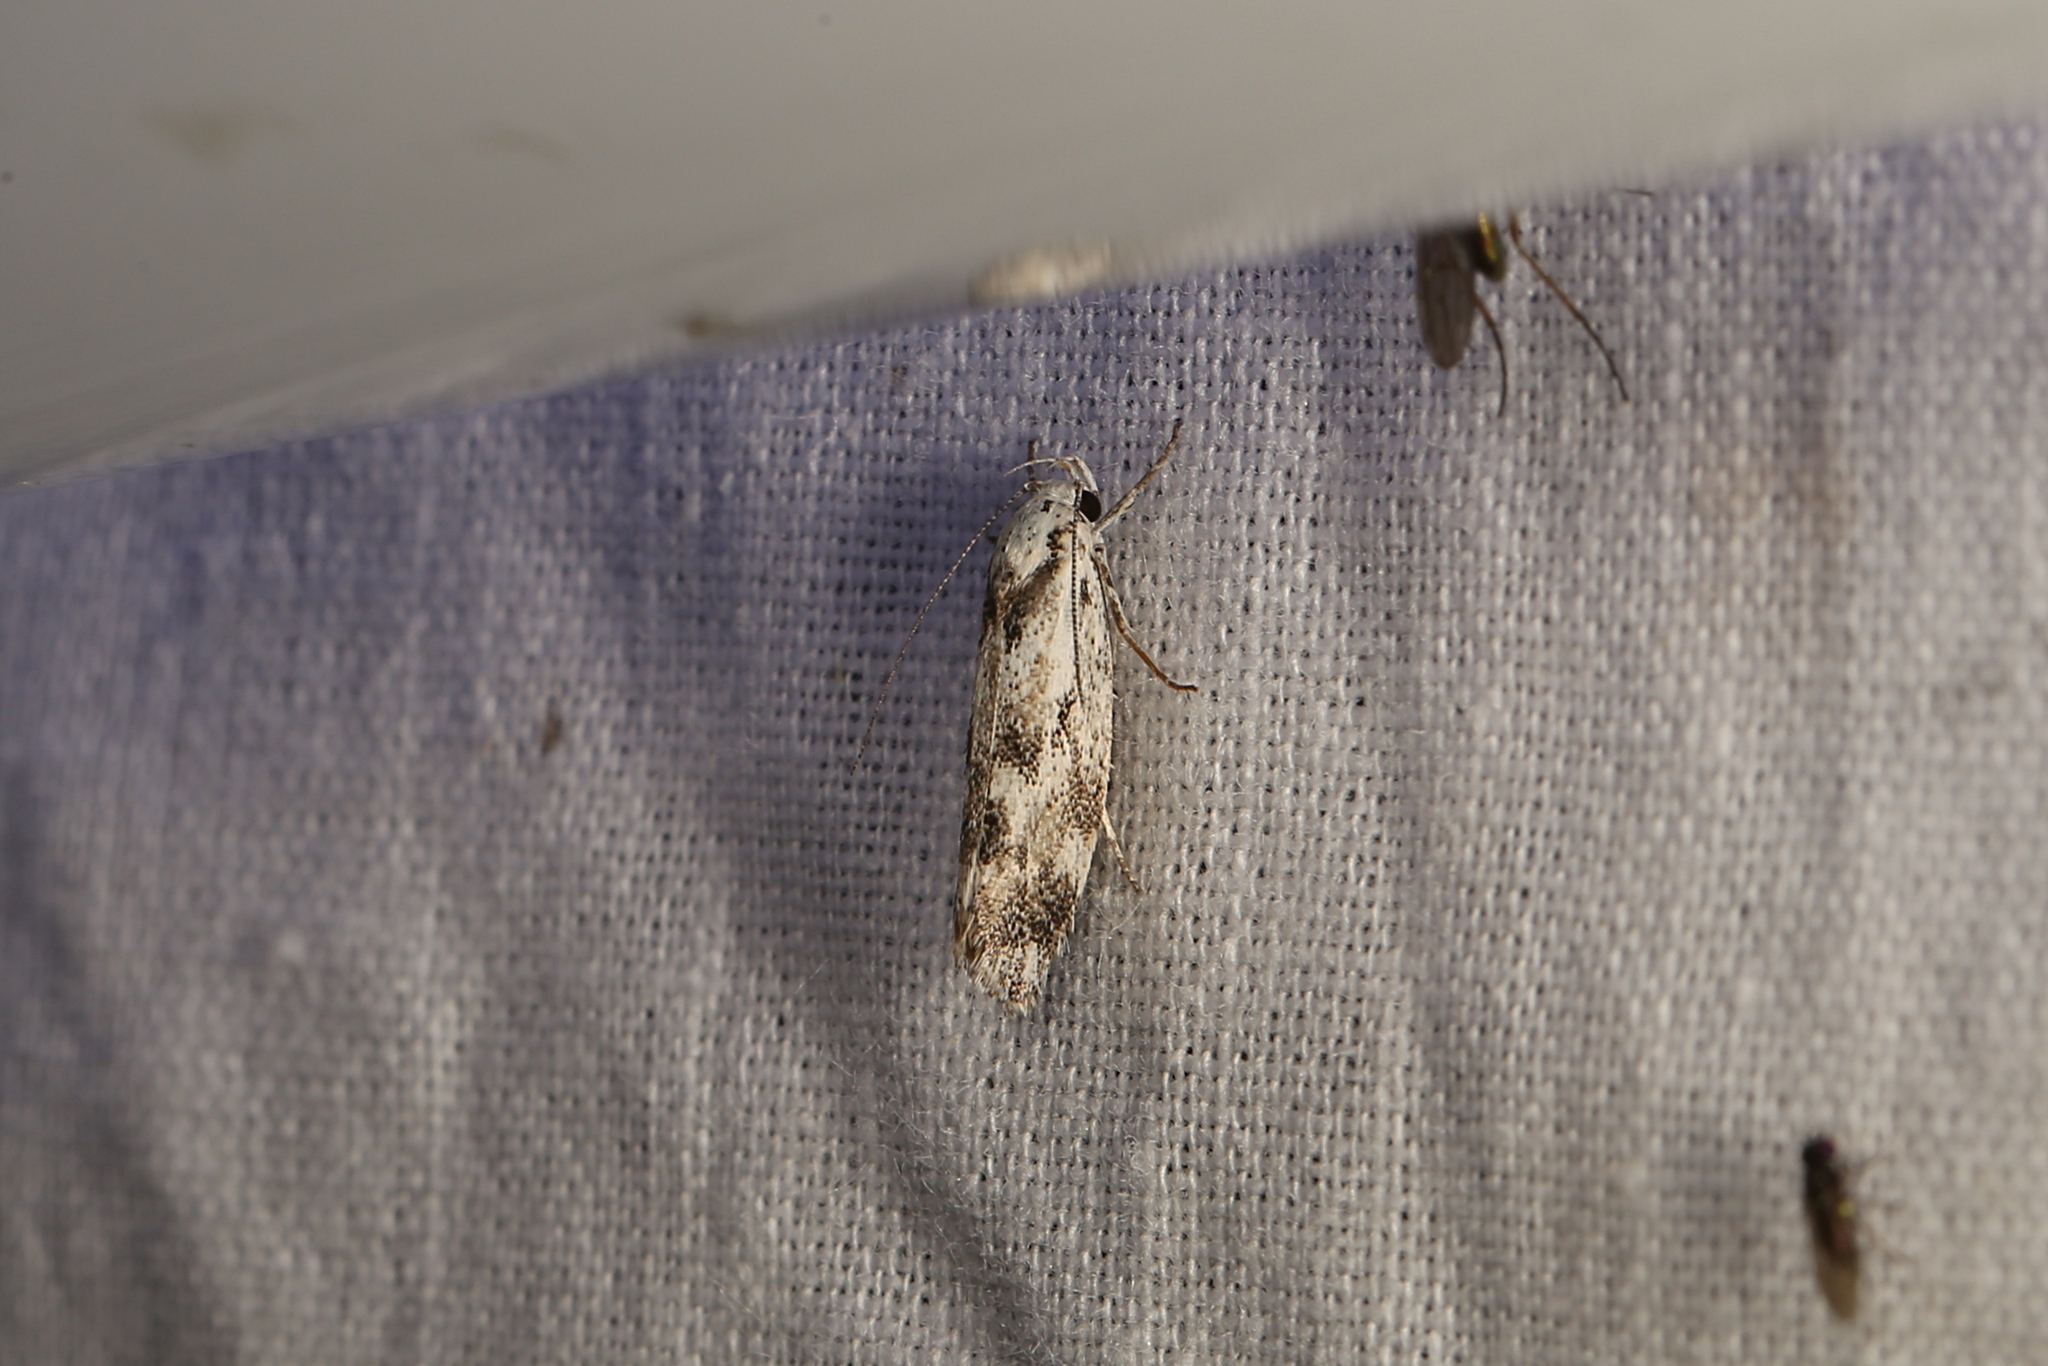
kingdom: Animalia
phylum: Arthropoda
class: Insecta
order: Lepidoptera
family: Xyloryctidae
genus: Lichenaula
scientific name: Lichenaula onychotypa
